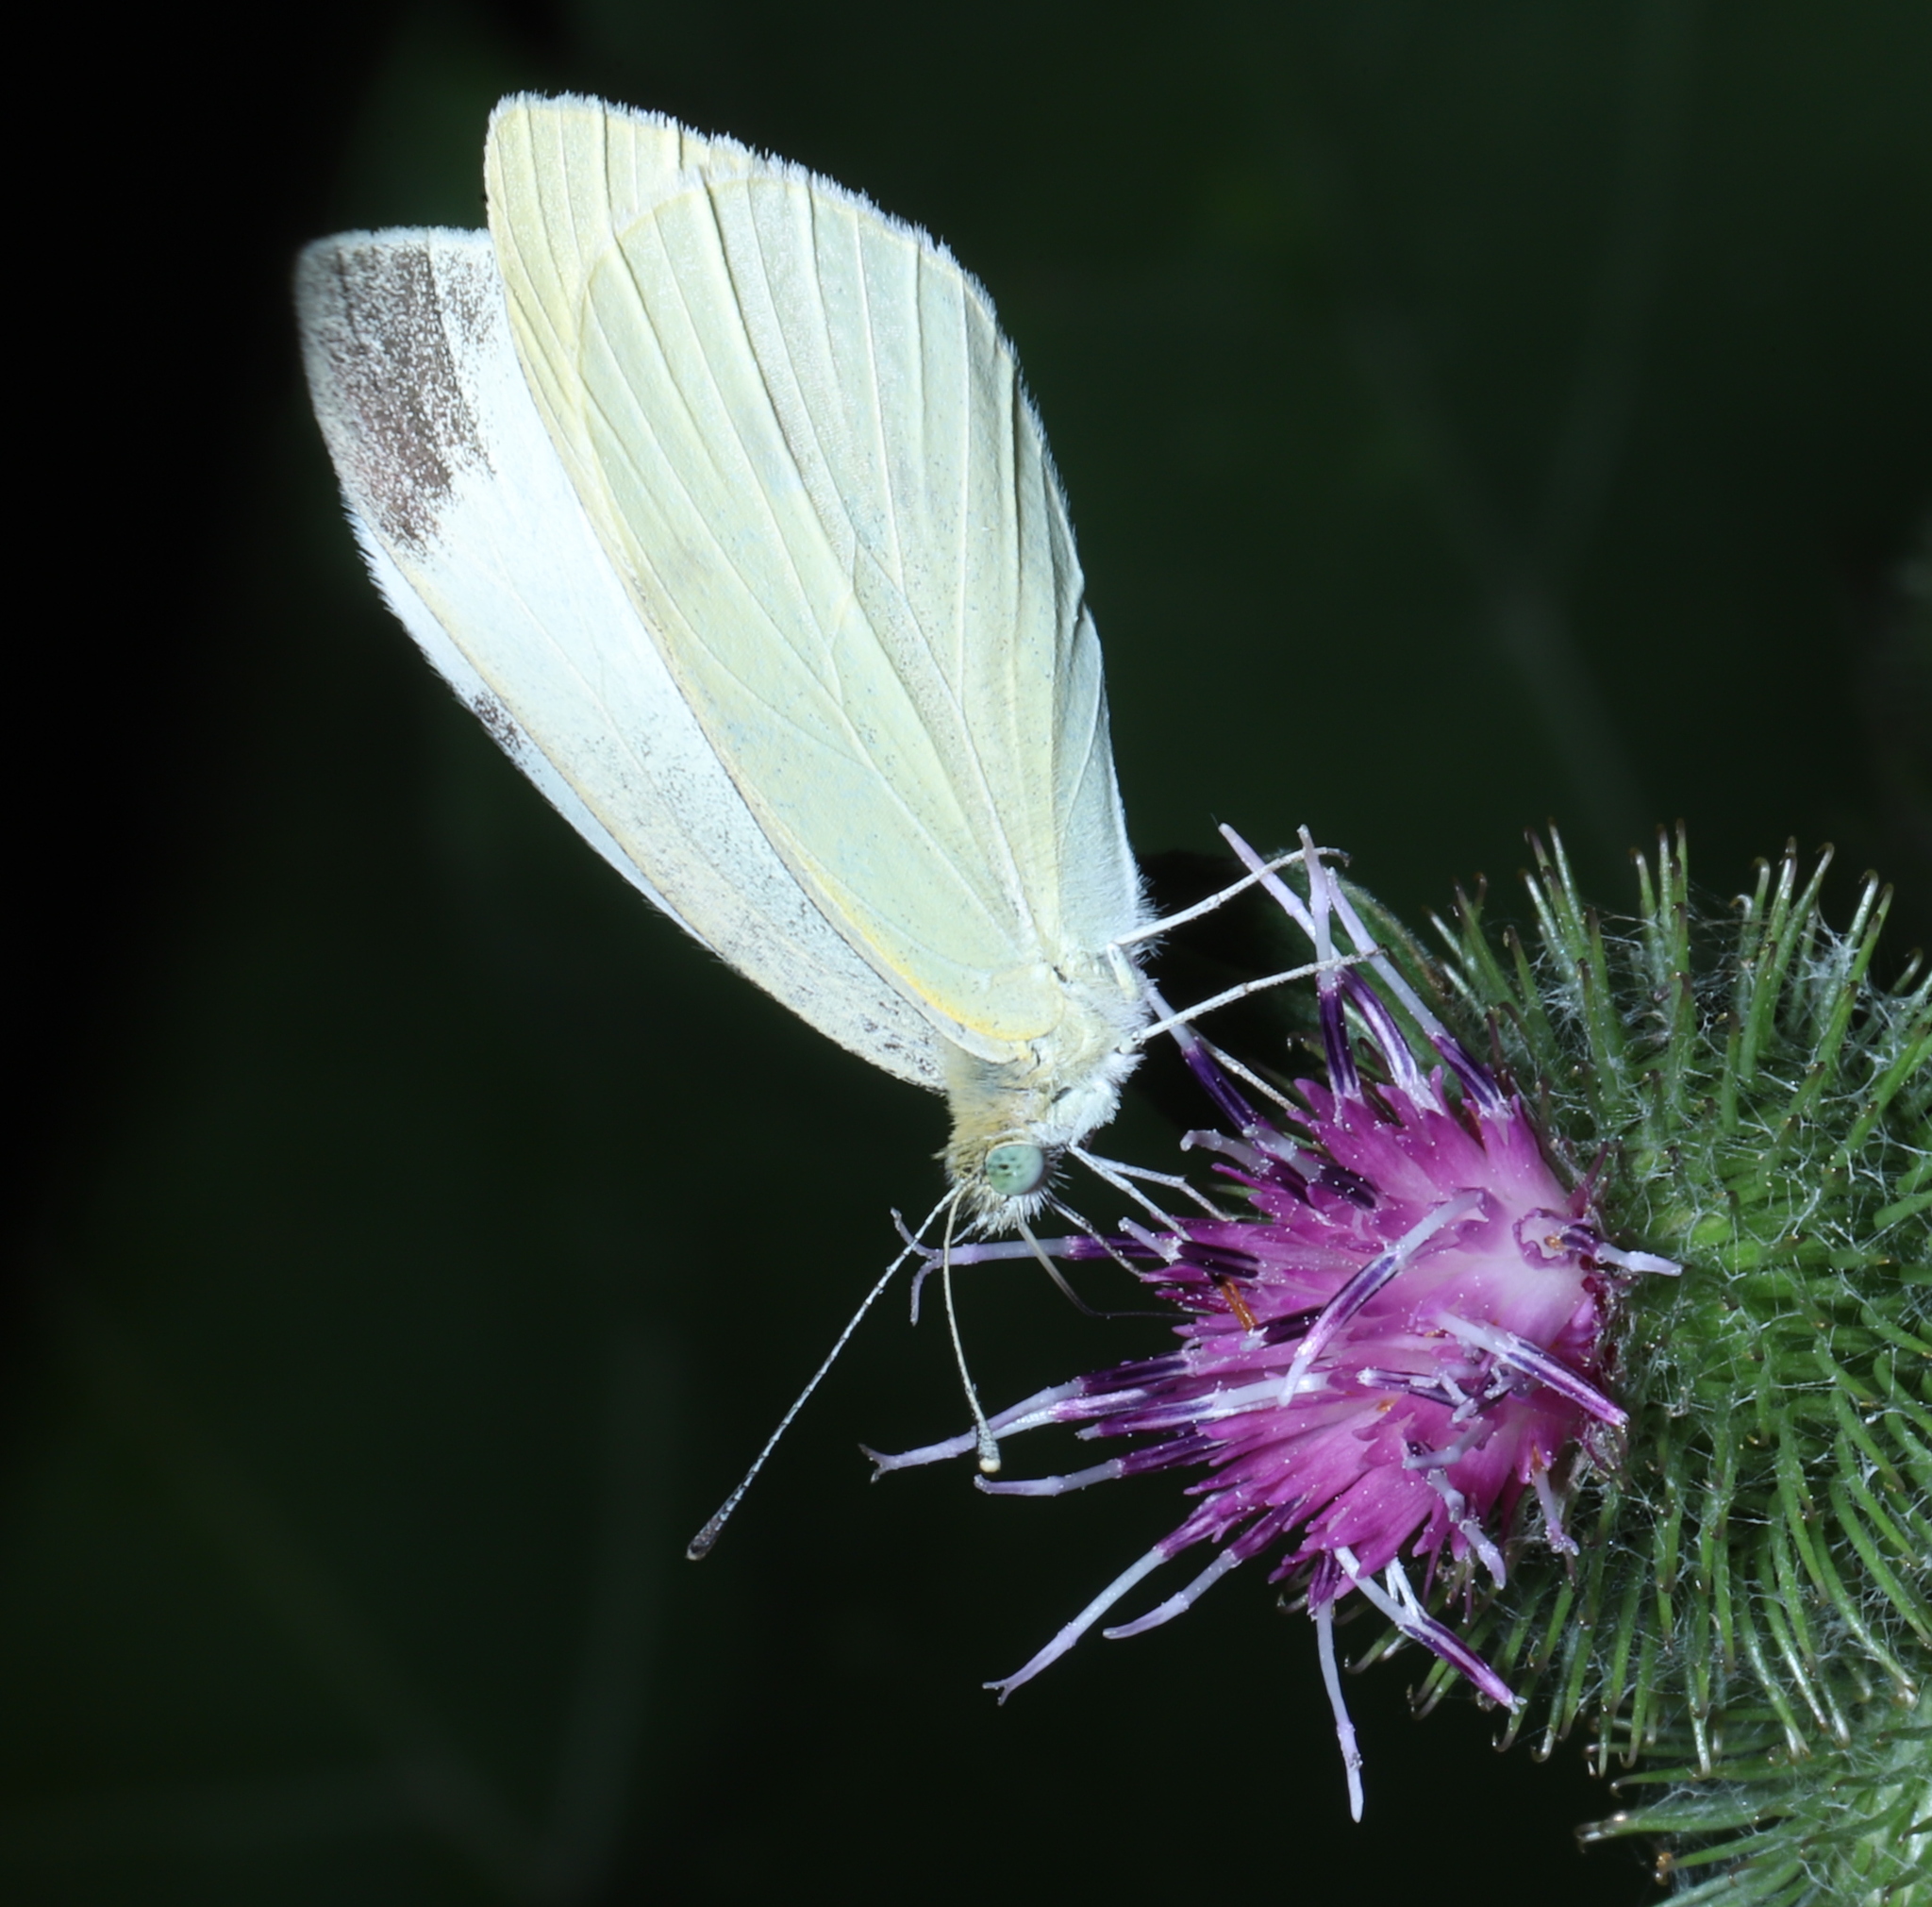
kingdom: Animalia
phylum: Arthropoda
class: Insecta
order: Lepidoptera
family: Pieridae
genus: Pieris
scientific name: Pieris rapae
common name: Small white
